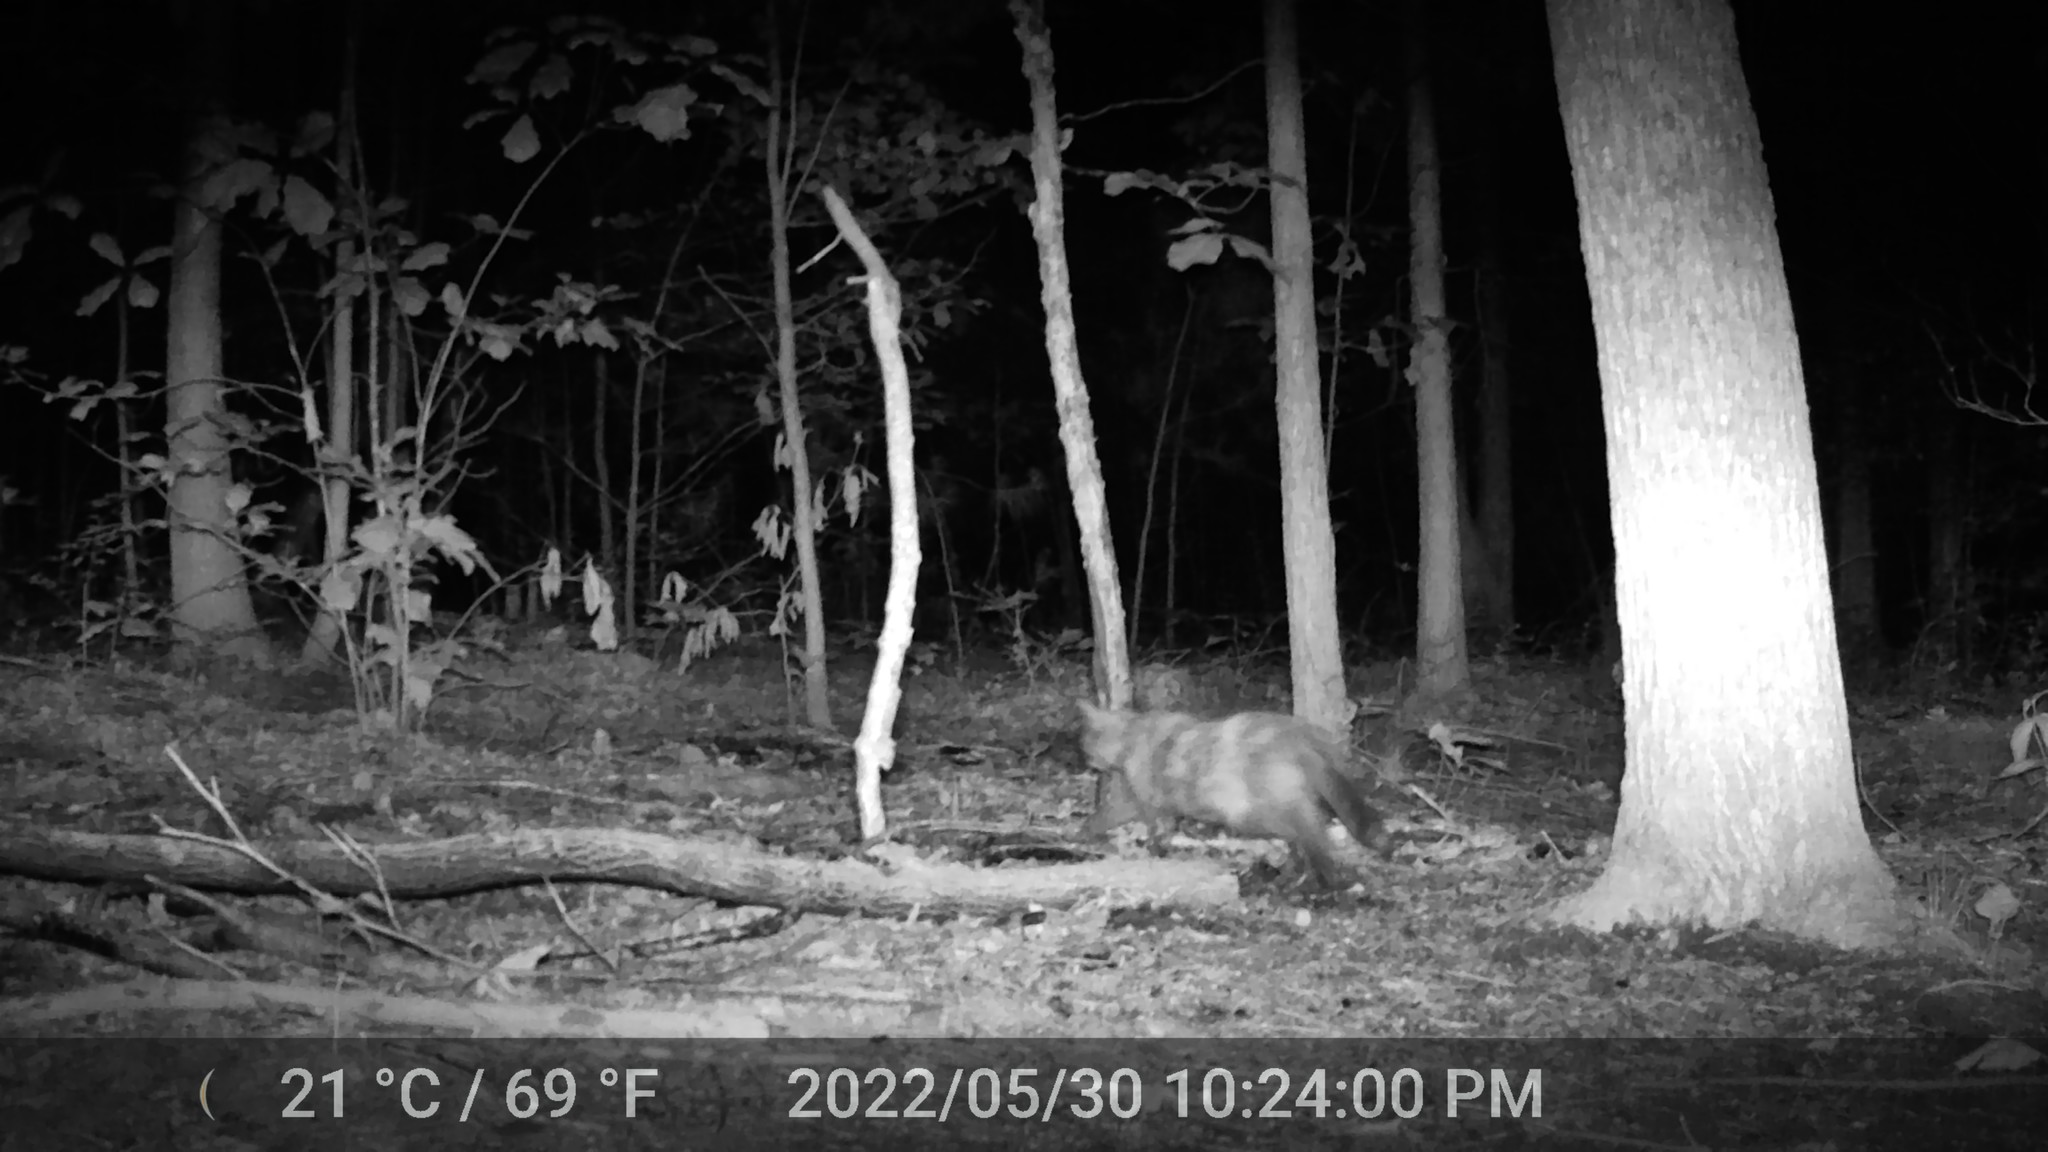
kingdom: Animalia
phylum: Chordata
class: Mammalia
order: Carnivora
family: Felidae
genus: Felis
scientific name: Felis catus
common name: Domestic cat
